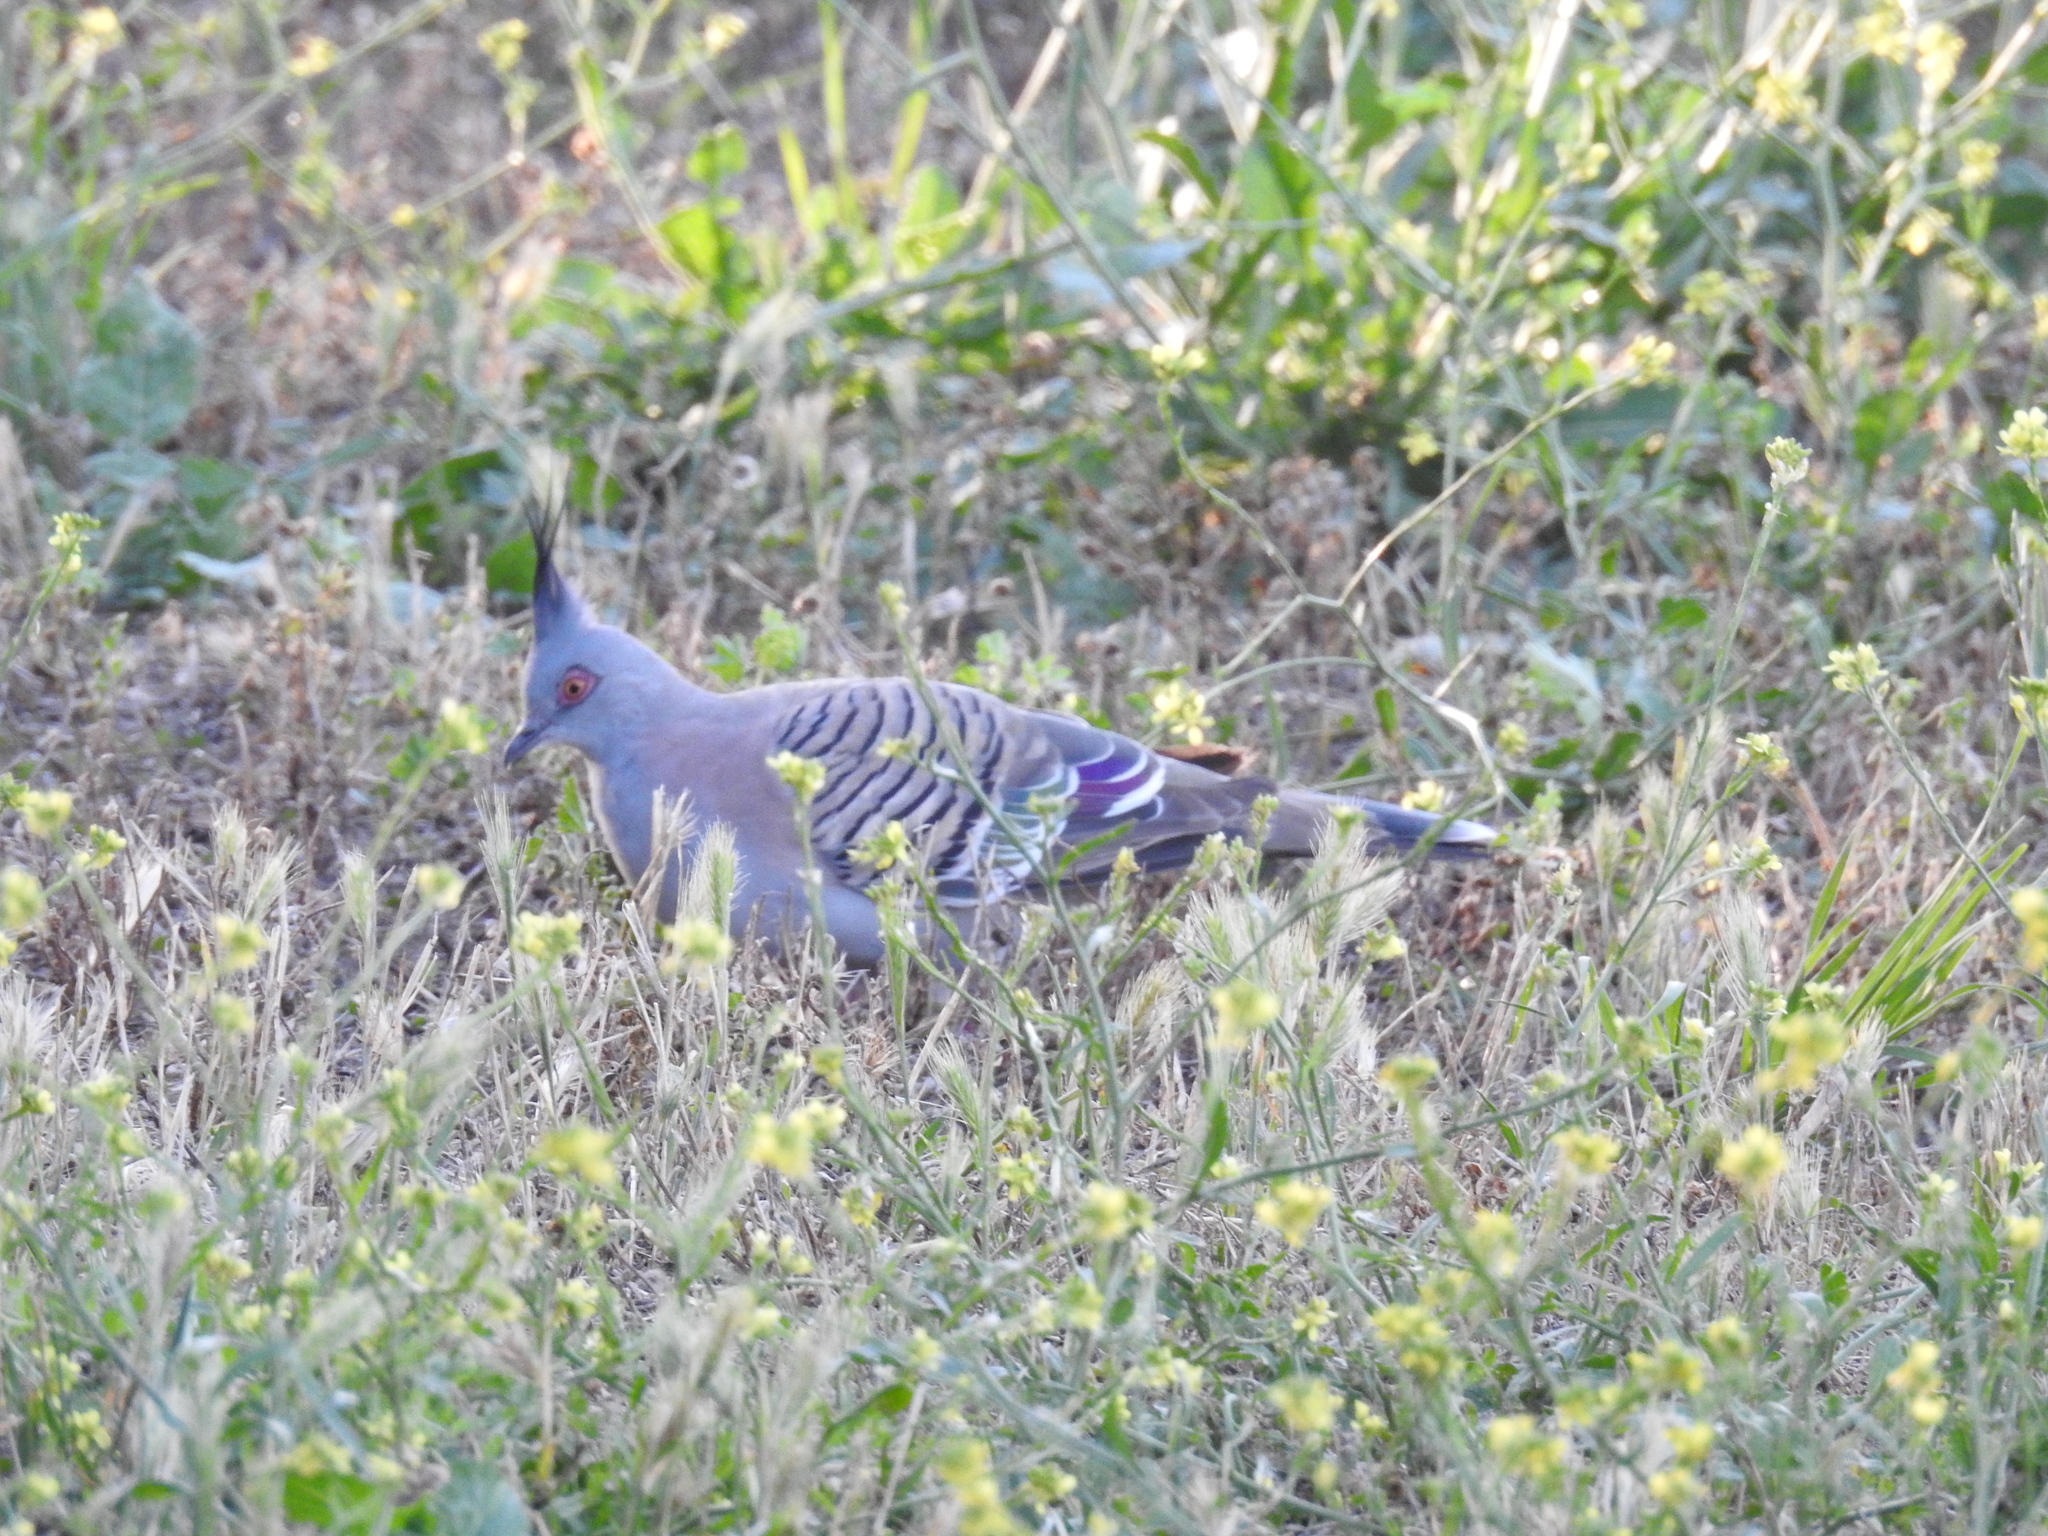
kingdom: Animalia
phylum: Chordata
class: Aves
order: Columbiformes
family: Columbidae
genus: Ocyphaps
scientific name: Ocyphaps lophotes
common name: Crested pigeon
